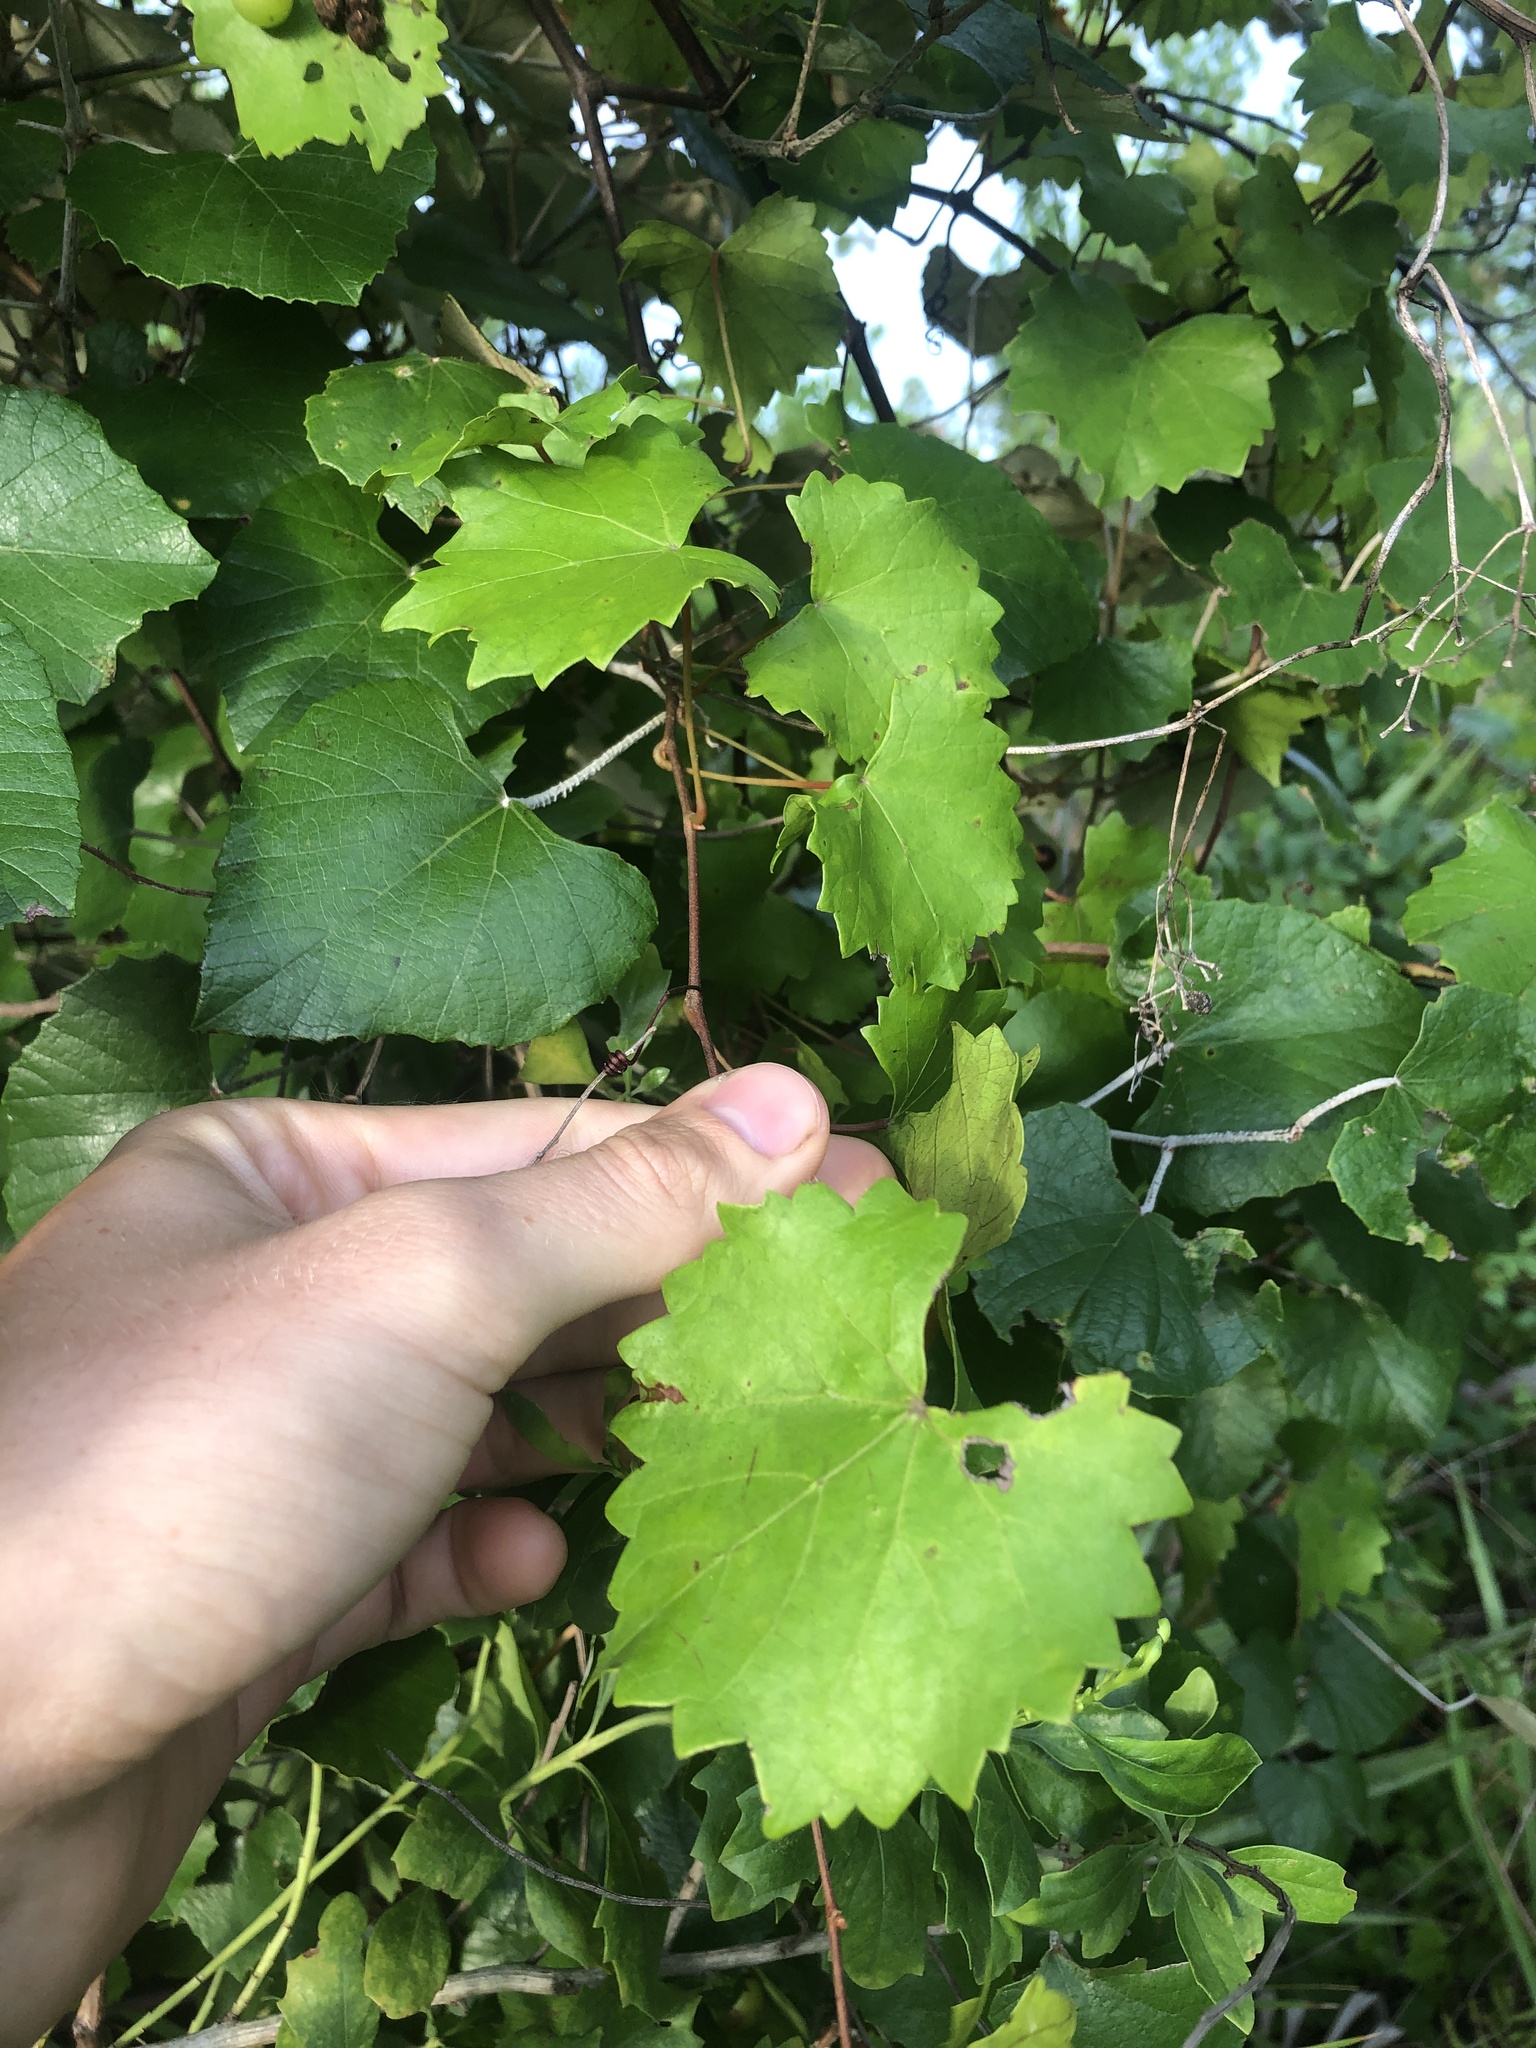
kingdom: Plantae
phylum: Tracheophyta
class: Magnoliopsida
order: Vitales
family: Vitaceae
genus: Vitis
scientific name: Vitis rotundifolia
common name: Muscadine grape
